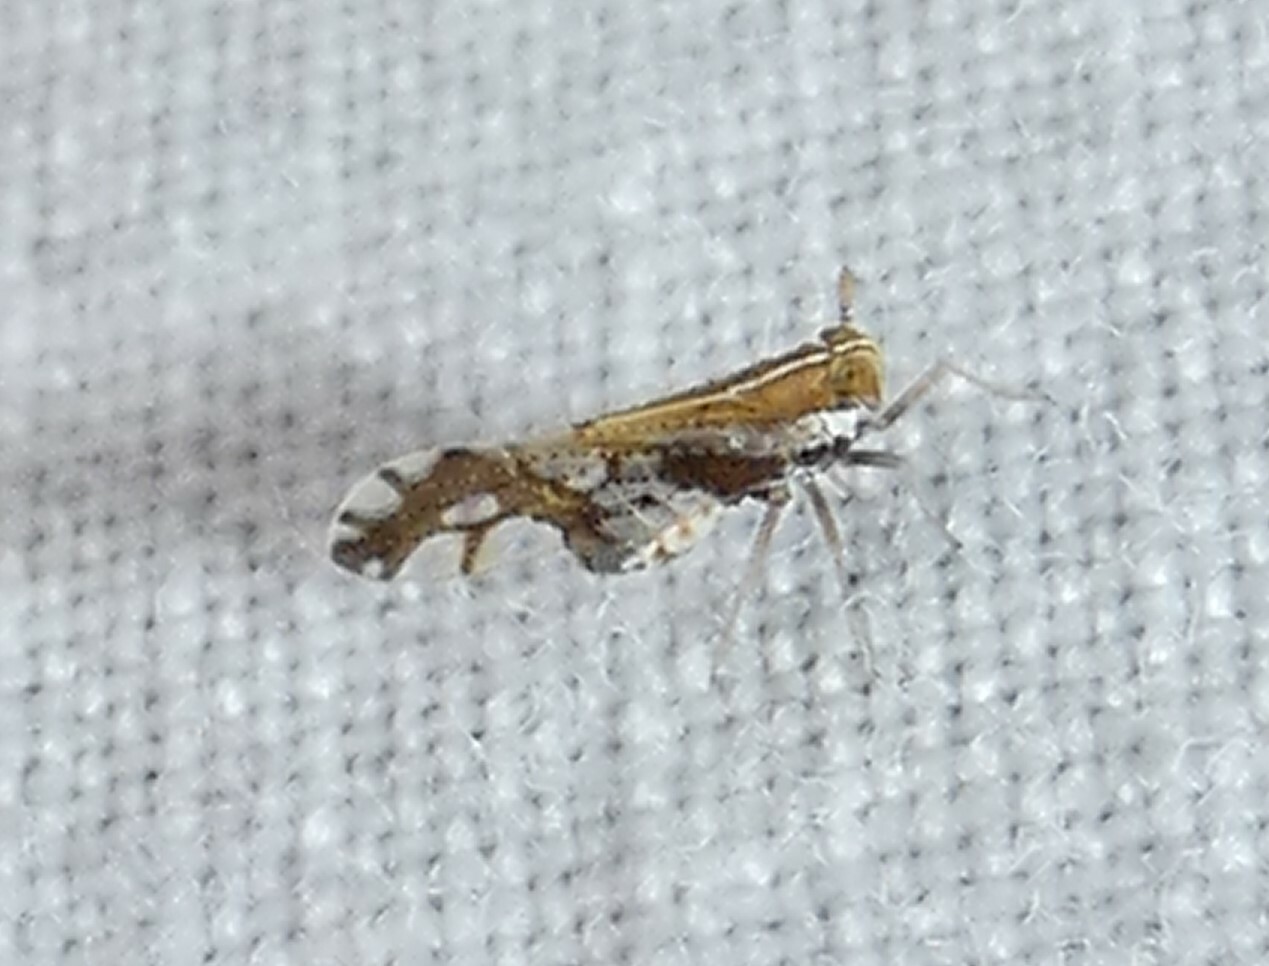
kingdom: Animalia
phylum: Arthropoda
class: Insecta
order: Hemiptera
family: Delphacidae
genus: Liburniella
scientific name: Liburniella ornata
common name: Ornate planthopper
